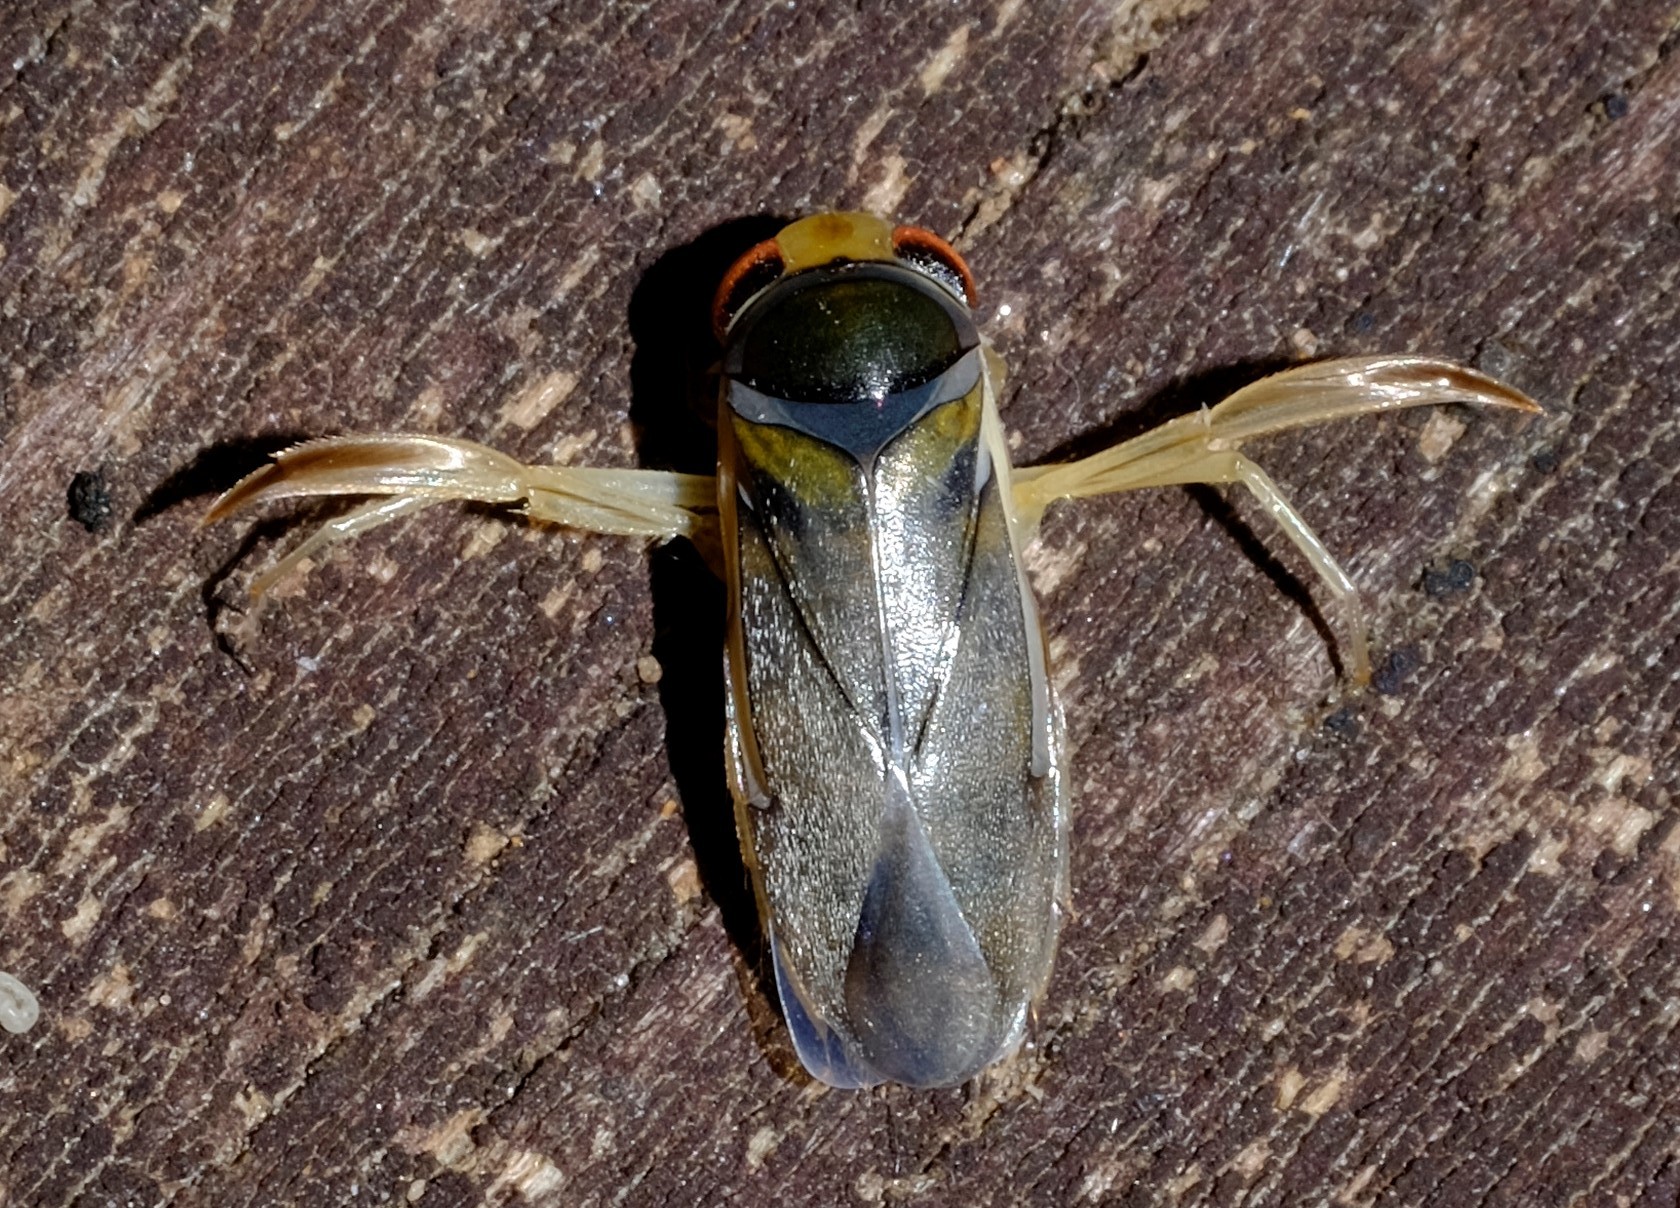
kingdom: Animalia
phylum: Arthropoda
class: Insecta
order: Hemiptera
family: Corixidae
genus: Agraptocorixa
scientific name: Agraptocorixa
